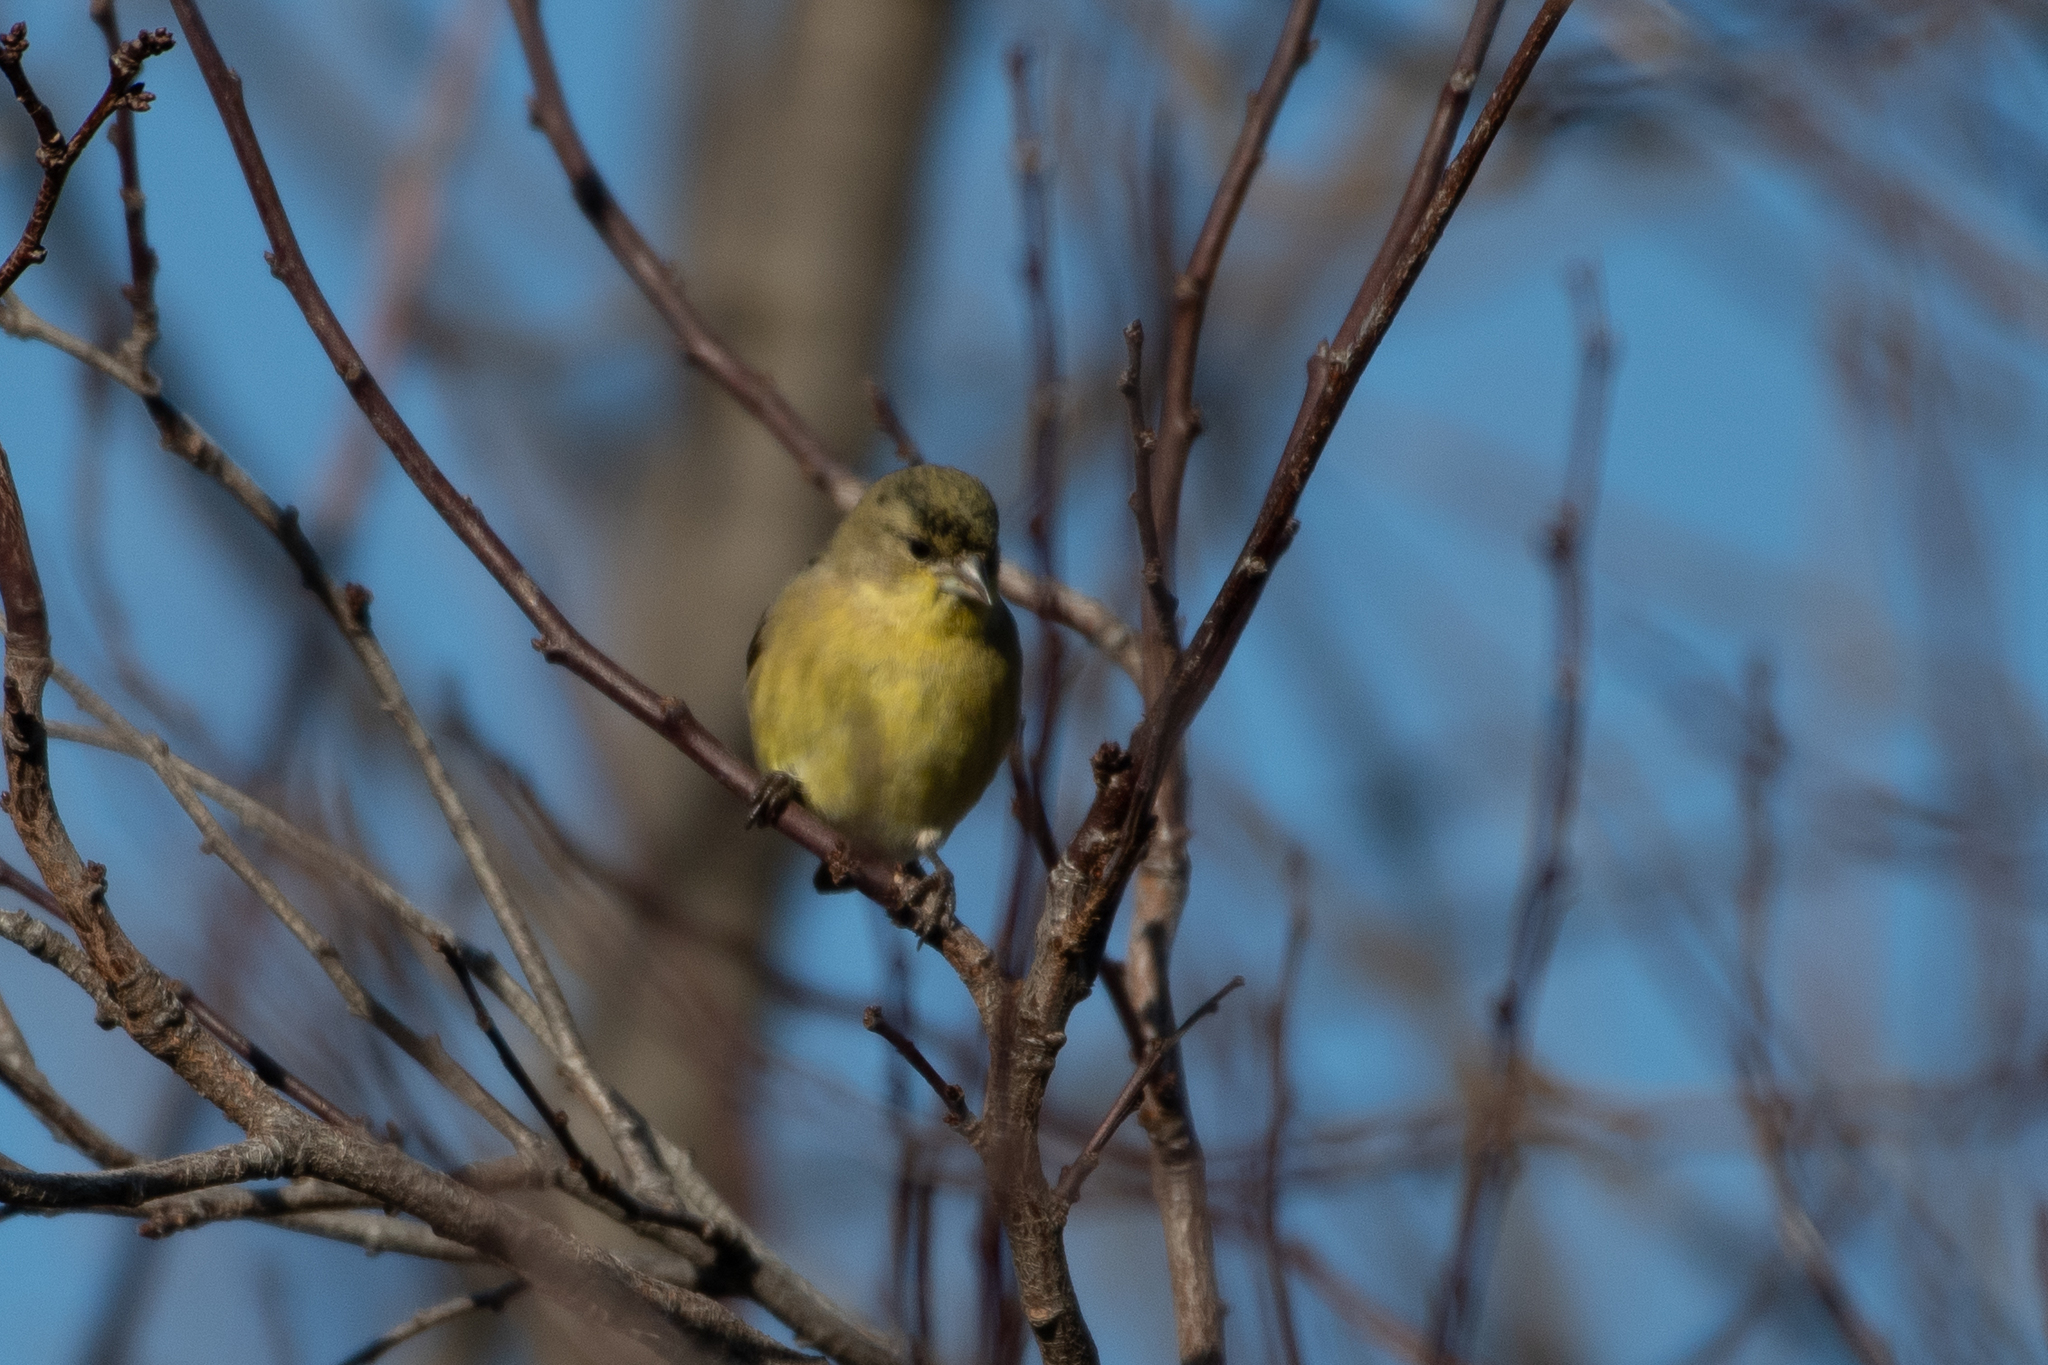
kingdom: Animalia
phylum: Chordata
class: Aves
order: Passeriformes
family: Fringillidae
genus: Spinus
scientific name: Spinus psaltria
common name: Lesser goldfinch
